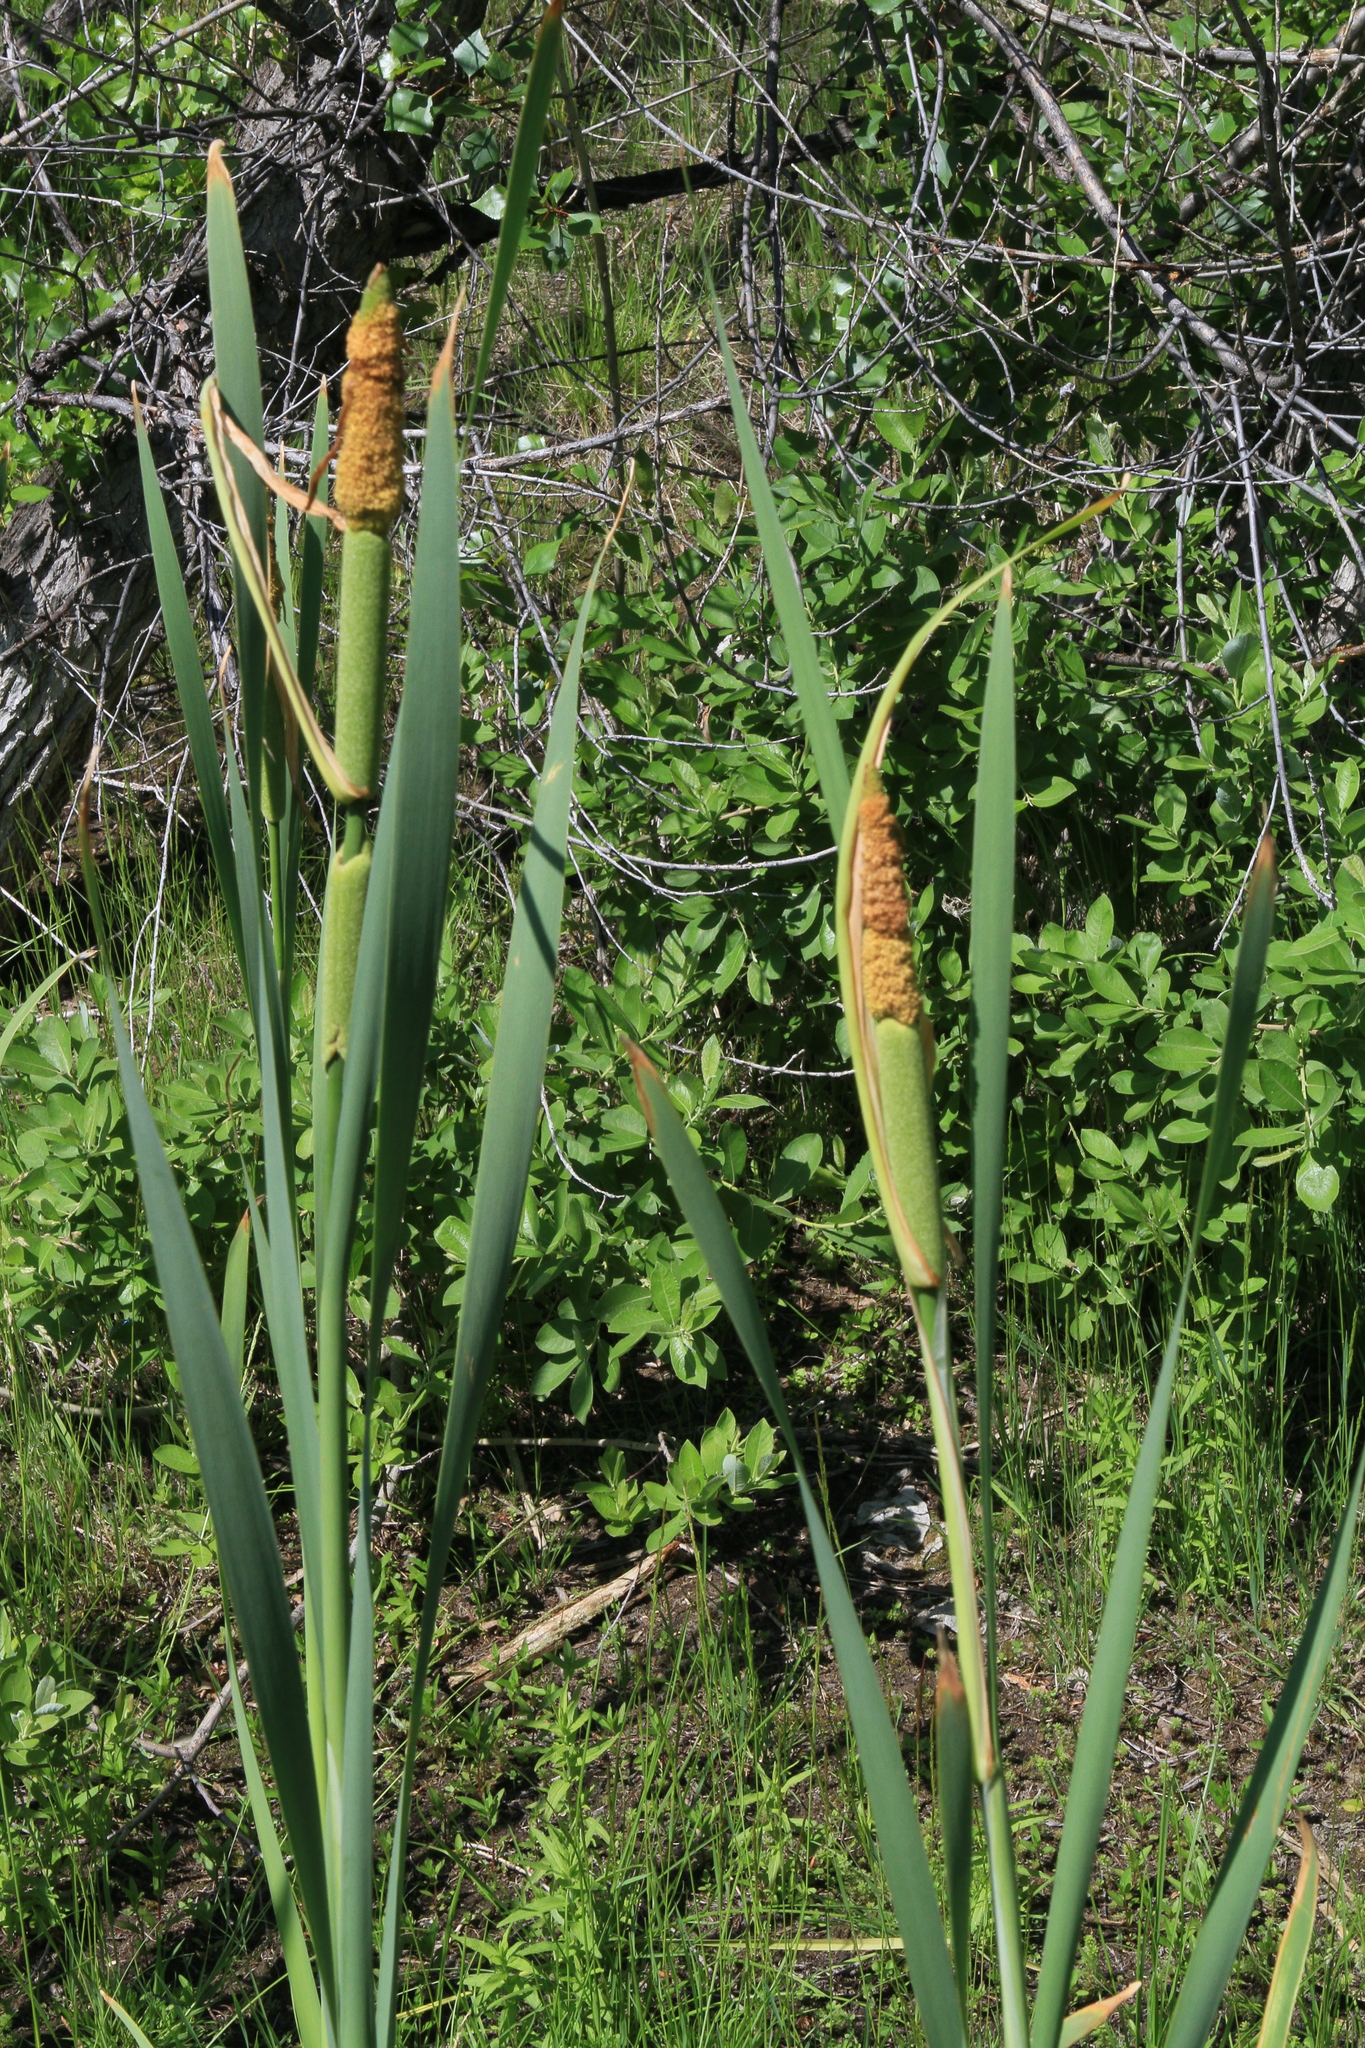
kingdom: Plantae
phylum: Tracheophyta
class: Liliopsida
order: Poales
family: Typhaceae
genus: Typha
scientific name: Typha latifolia
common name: Broadleaf cattail
